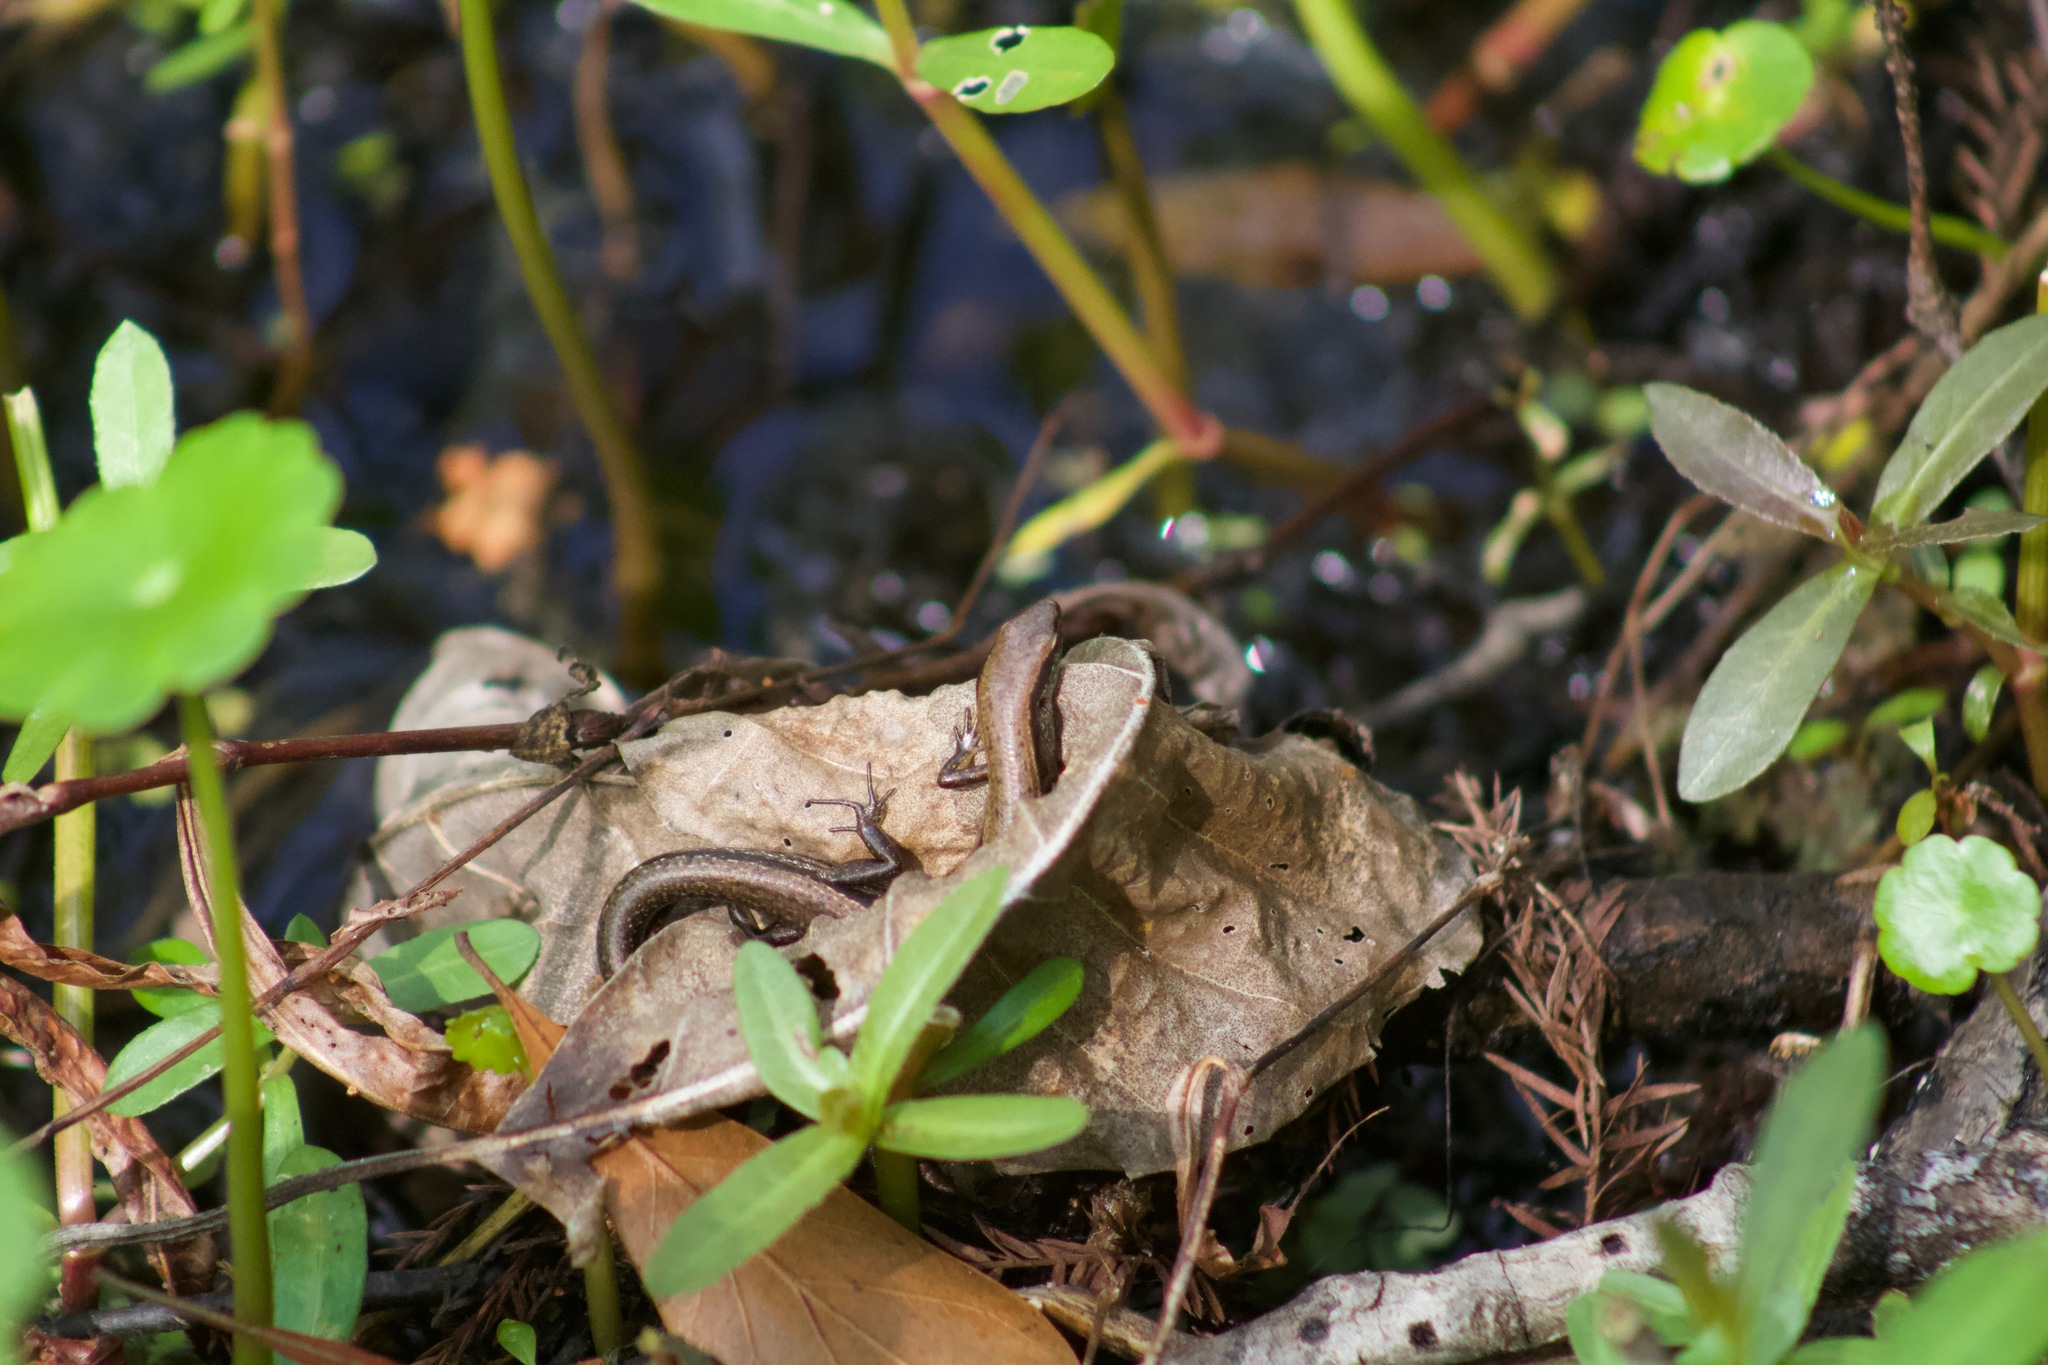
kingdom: Animalia
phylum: Chordata
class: Squamata
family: Scincidae
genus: Scincella
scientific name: Scincella lateralis
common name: Ground skink
